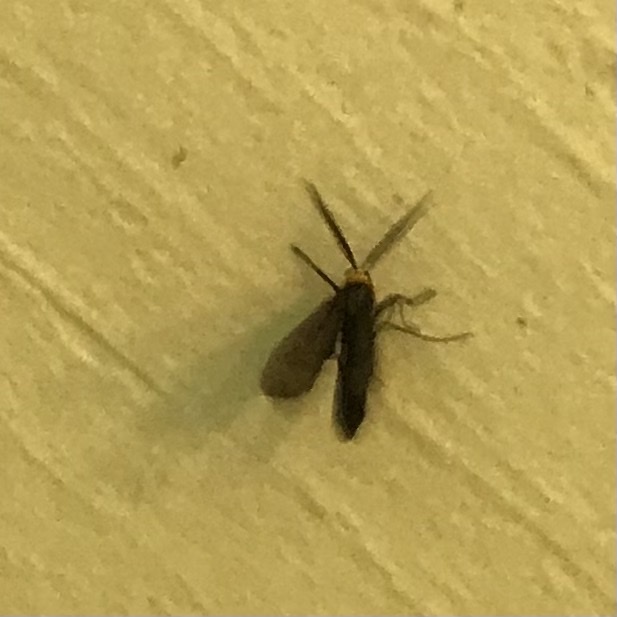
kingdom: Animalia
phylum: Arthropoda
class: Insecta
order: Lepidoptera
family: Erebidae
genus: Cisseps
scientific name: Cisseps fulvicollis
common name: Yellow-collared scape moth
